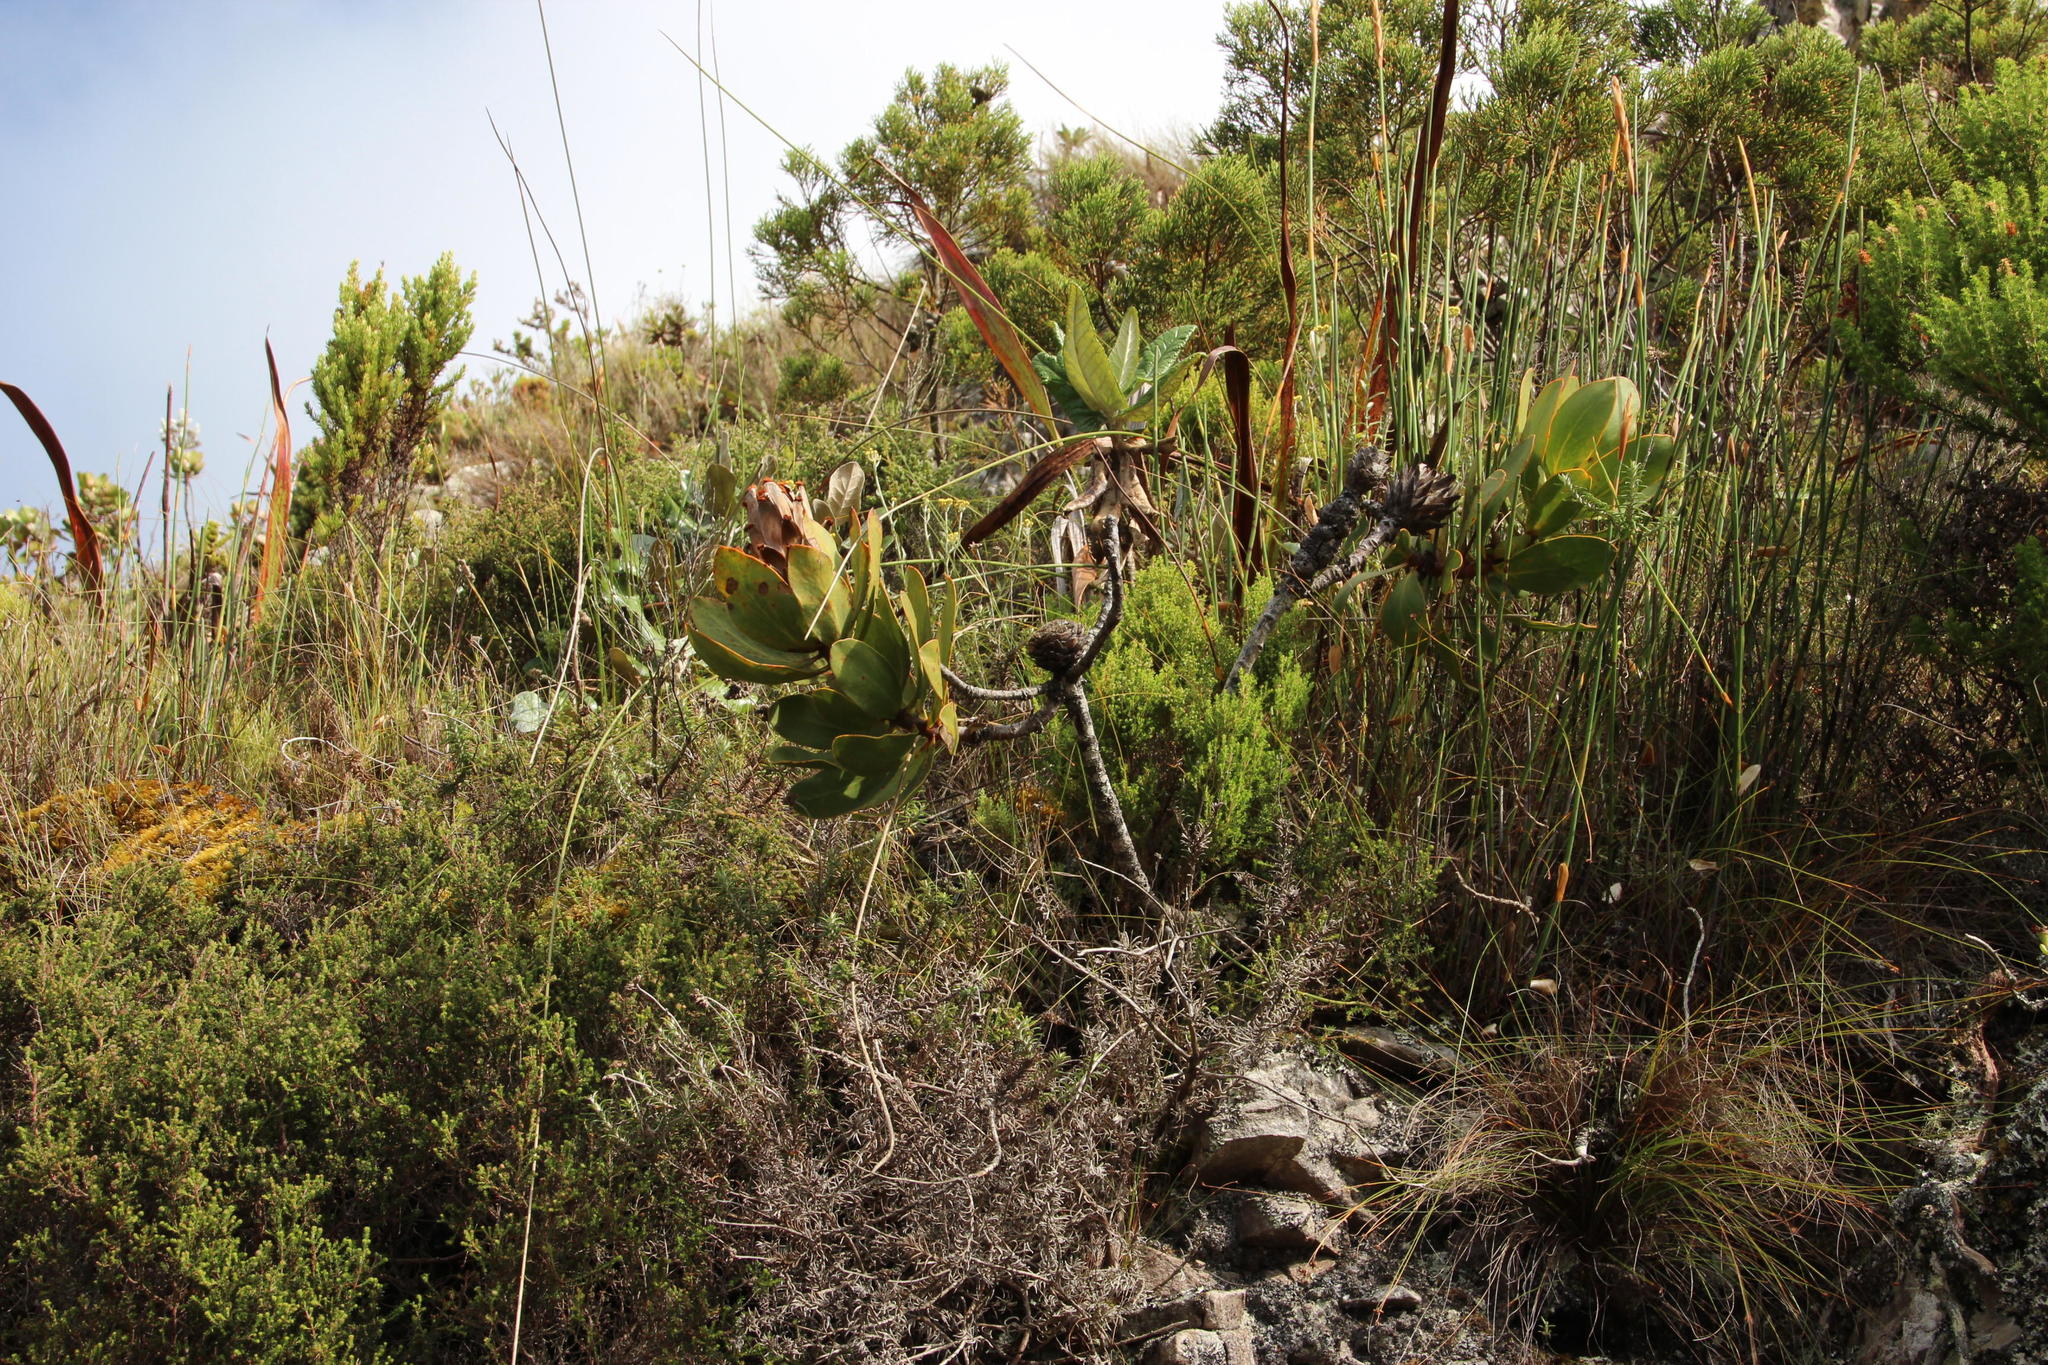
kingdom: Plantae
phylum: Tracheophyta
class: Magnoliopsida
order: Proteales
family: Proteaceae
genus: Protea
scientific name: Protea speciosa
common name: Brown-beard sugarbush
